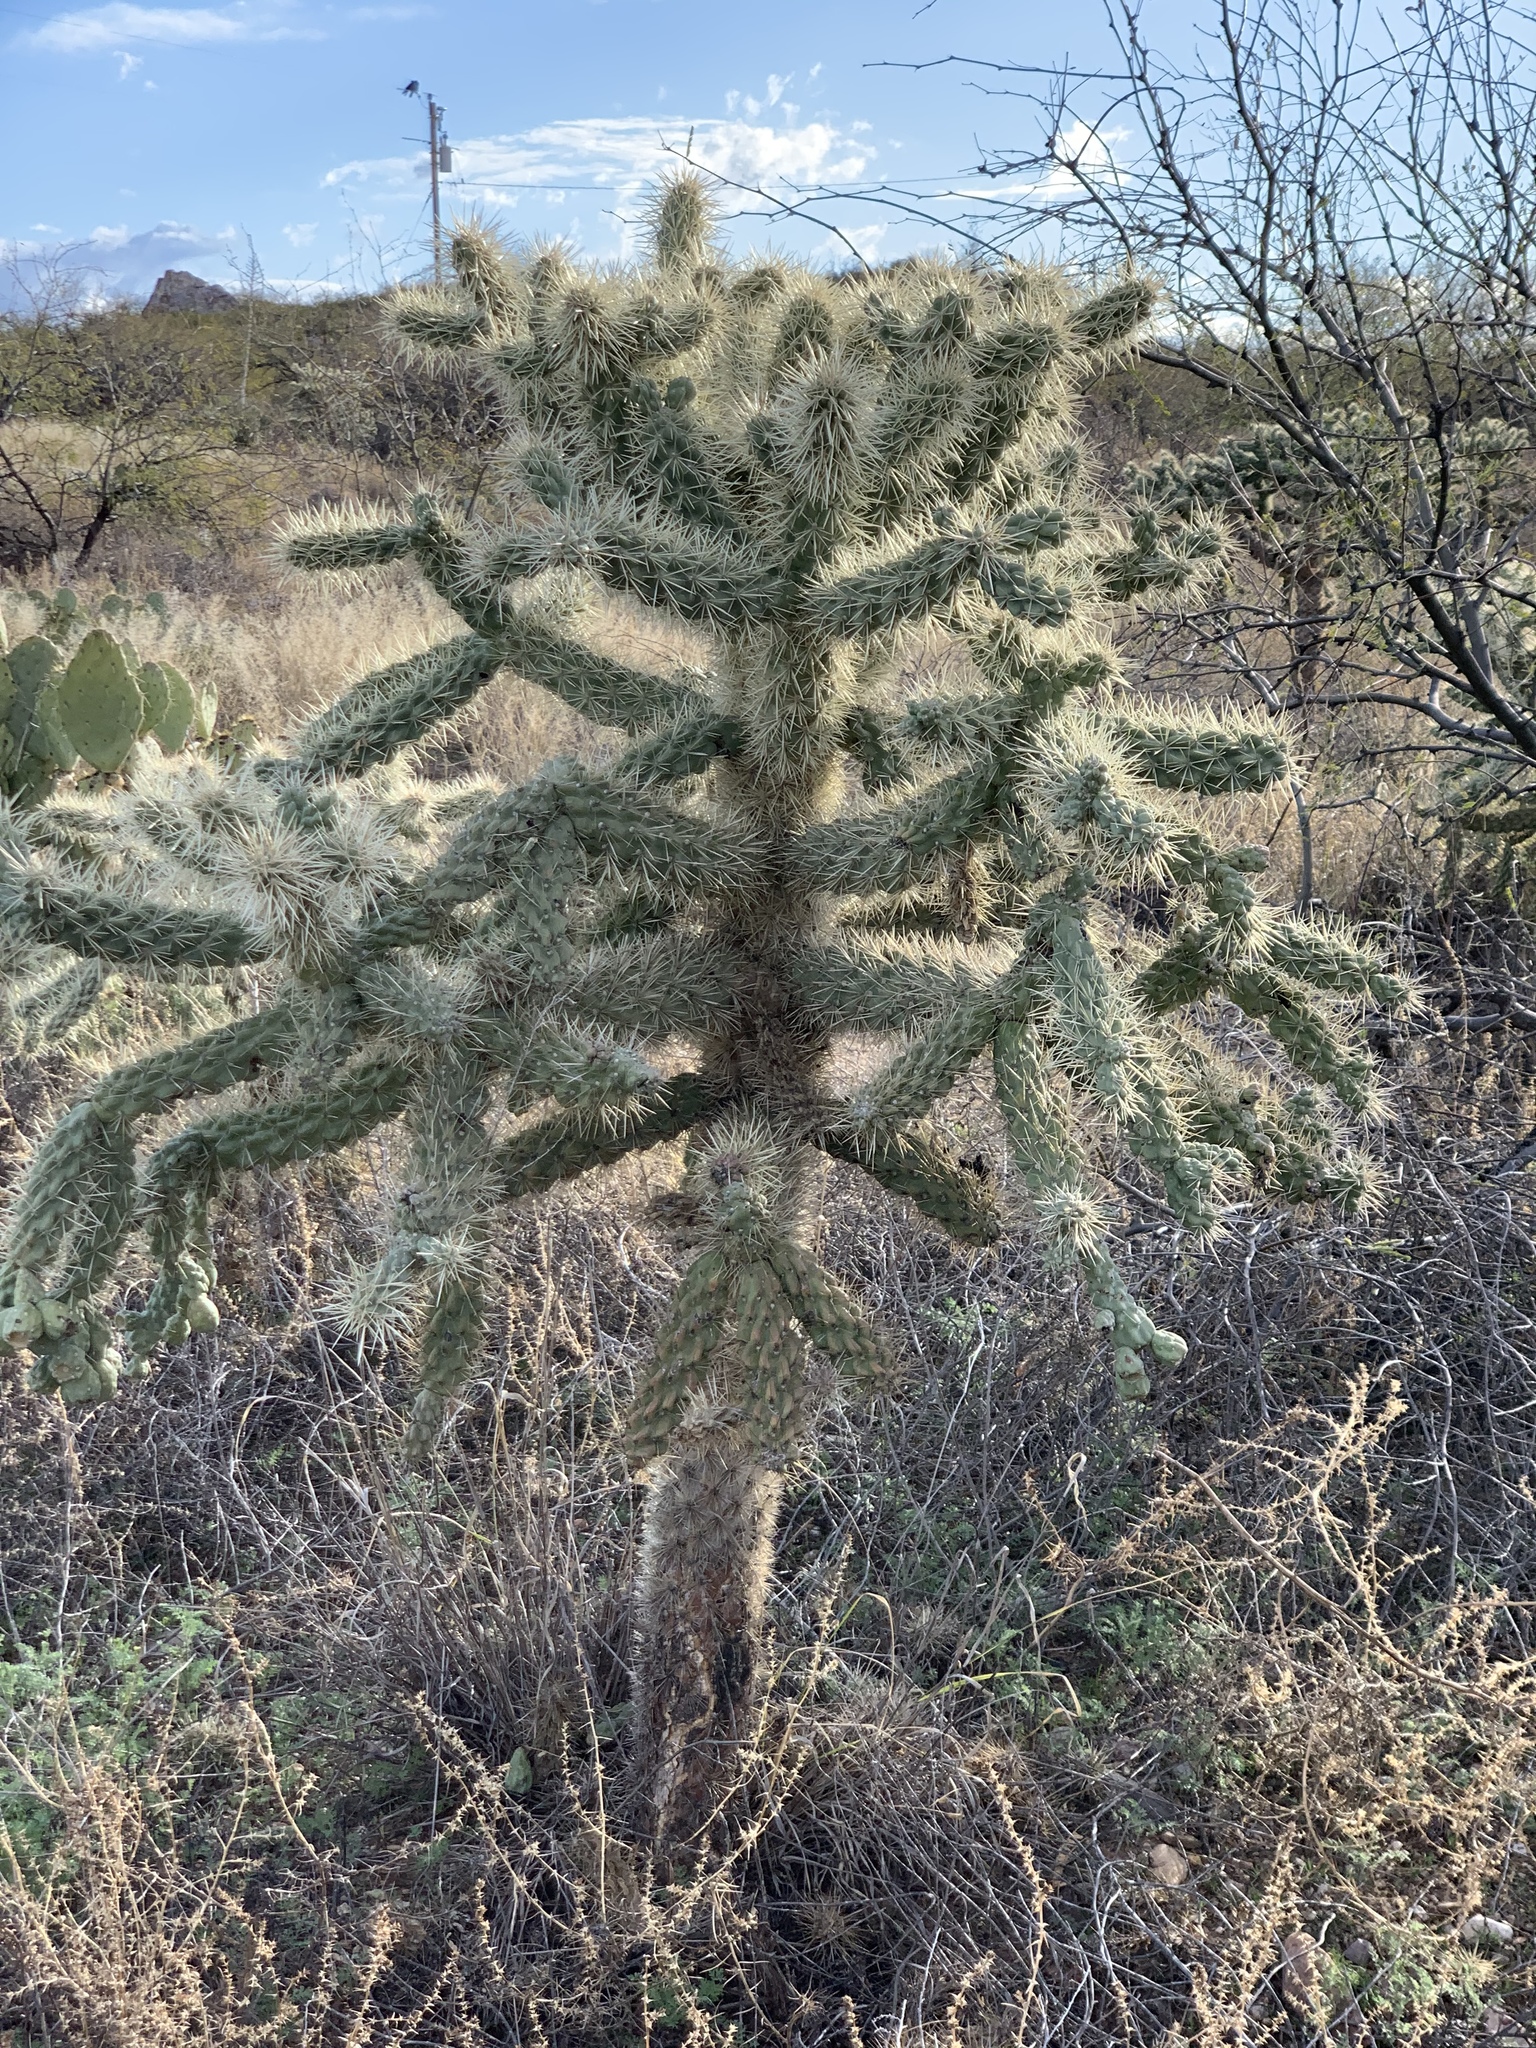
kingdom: Plantae
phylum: Tracheophyta
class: Magnoliopsida
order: Caryophyllales
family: Cactaceae
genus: Cylindropuntia
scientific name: Cylindropuntia fulgida
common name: Jumping cholla
